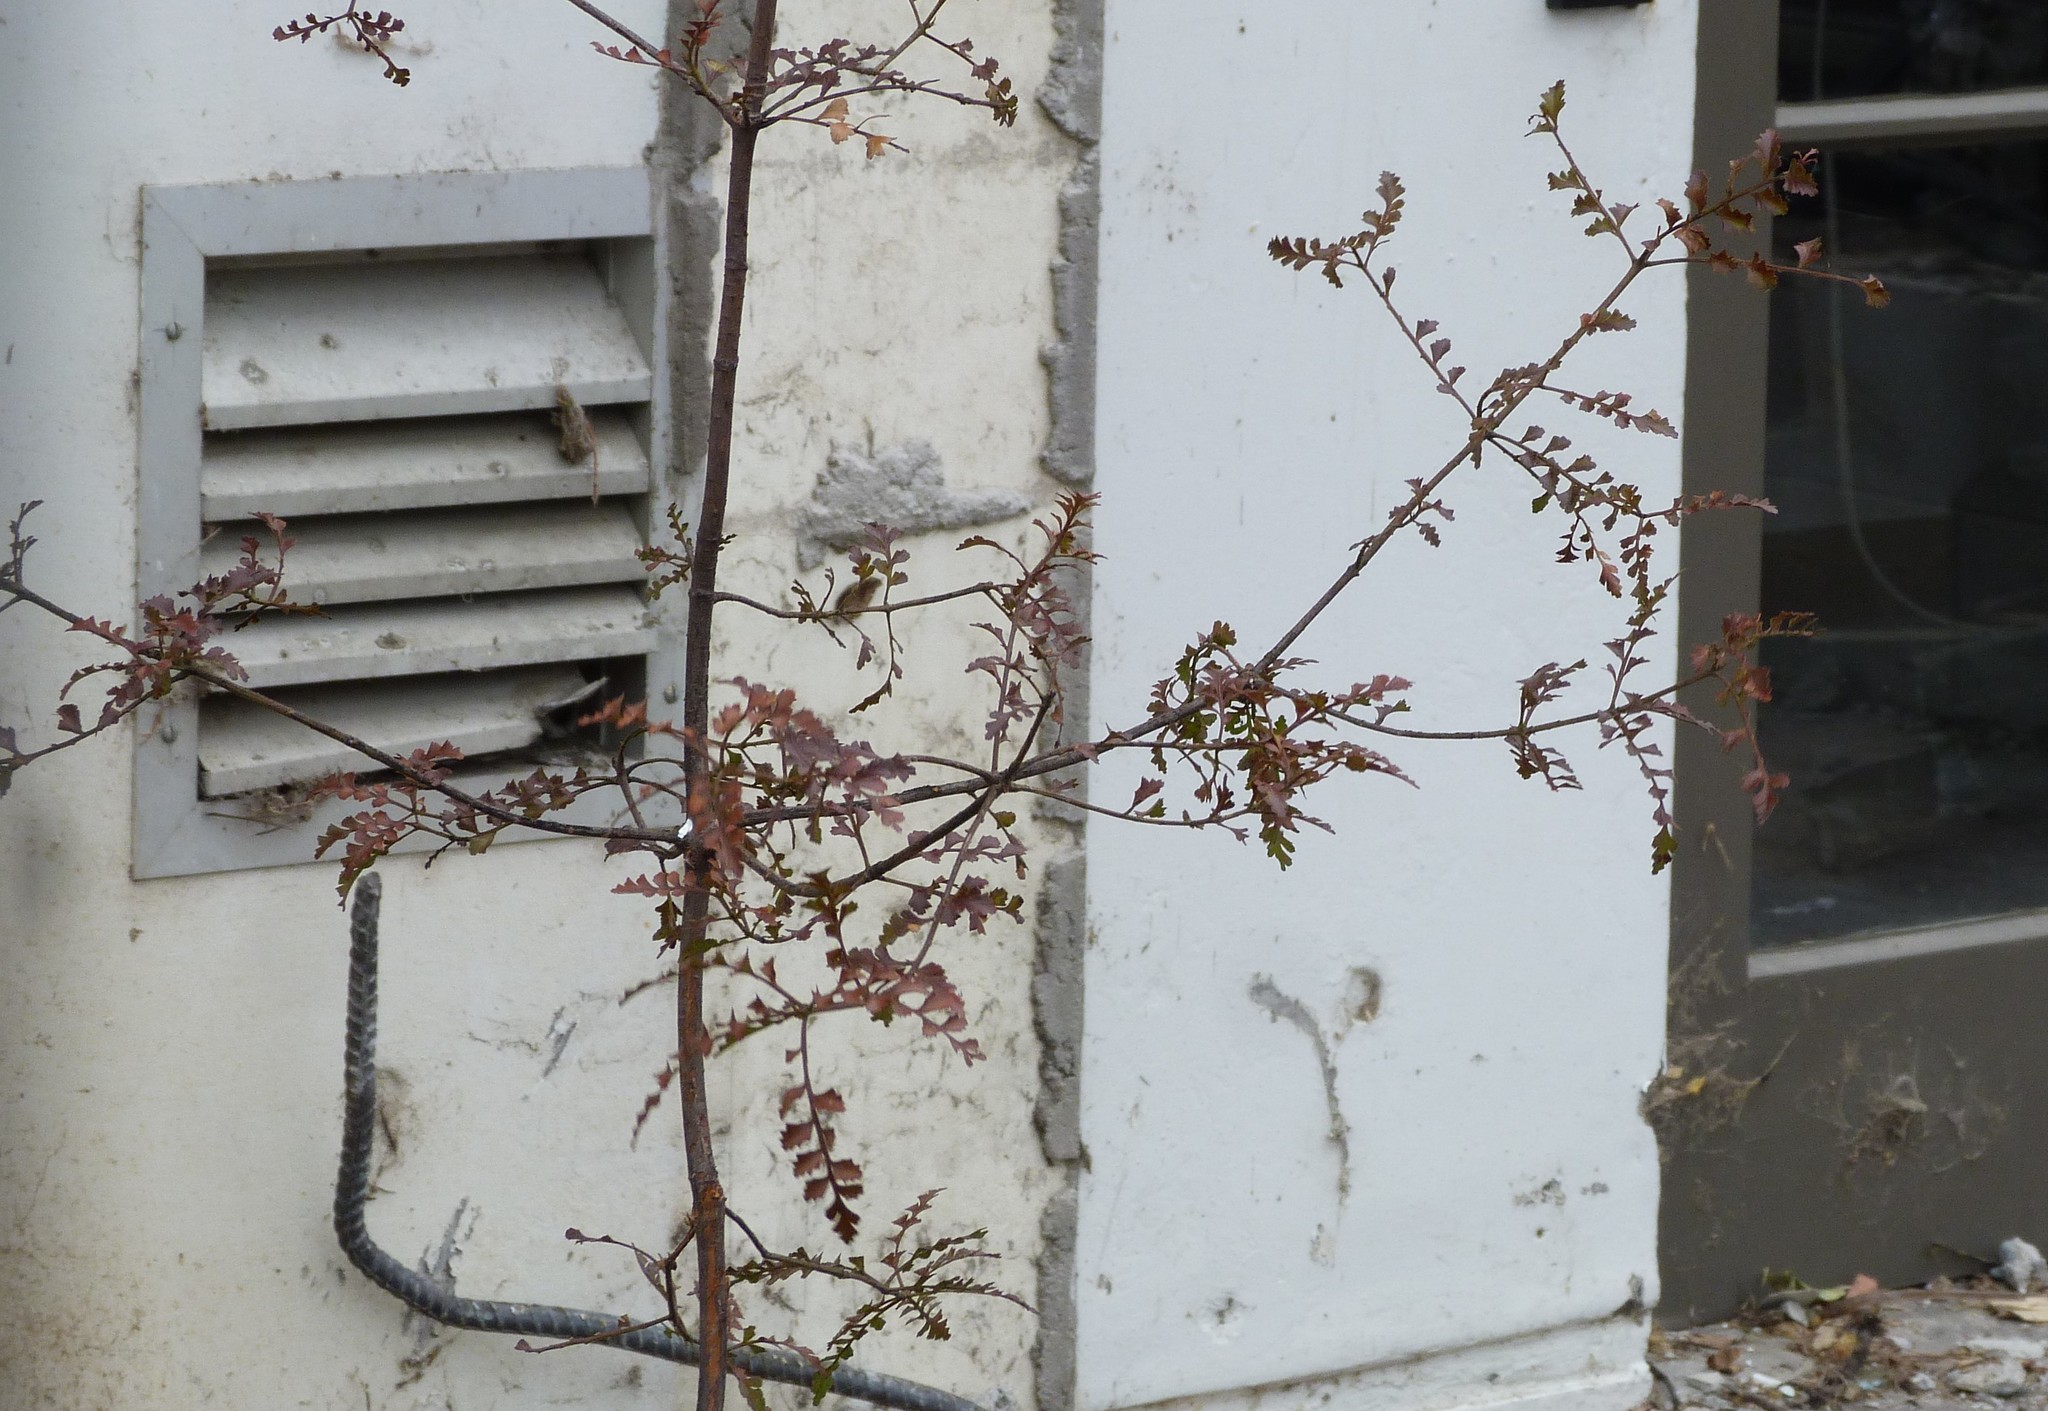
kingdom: Plantae
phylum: Tracheophyta
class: Pinopsida
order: Pinales
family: Phyllocladaceae
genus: Phyllocladus
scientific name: Phyllocladus trichomanoides
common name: Celery pine
